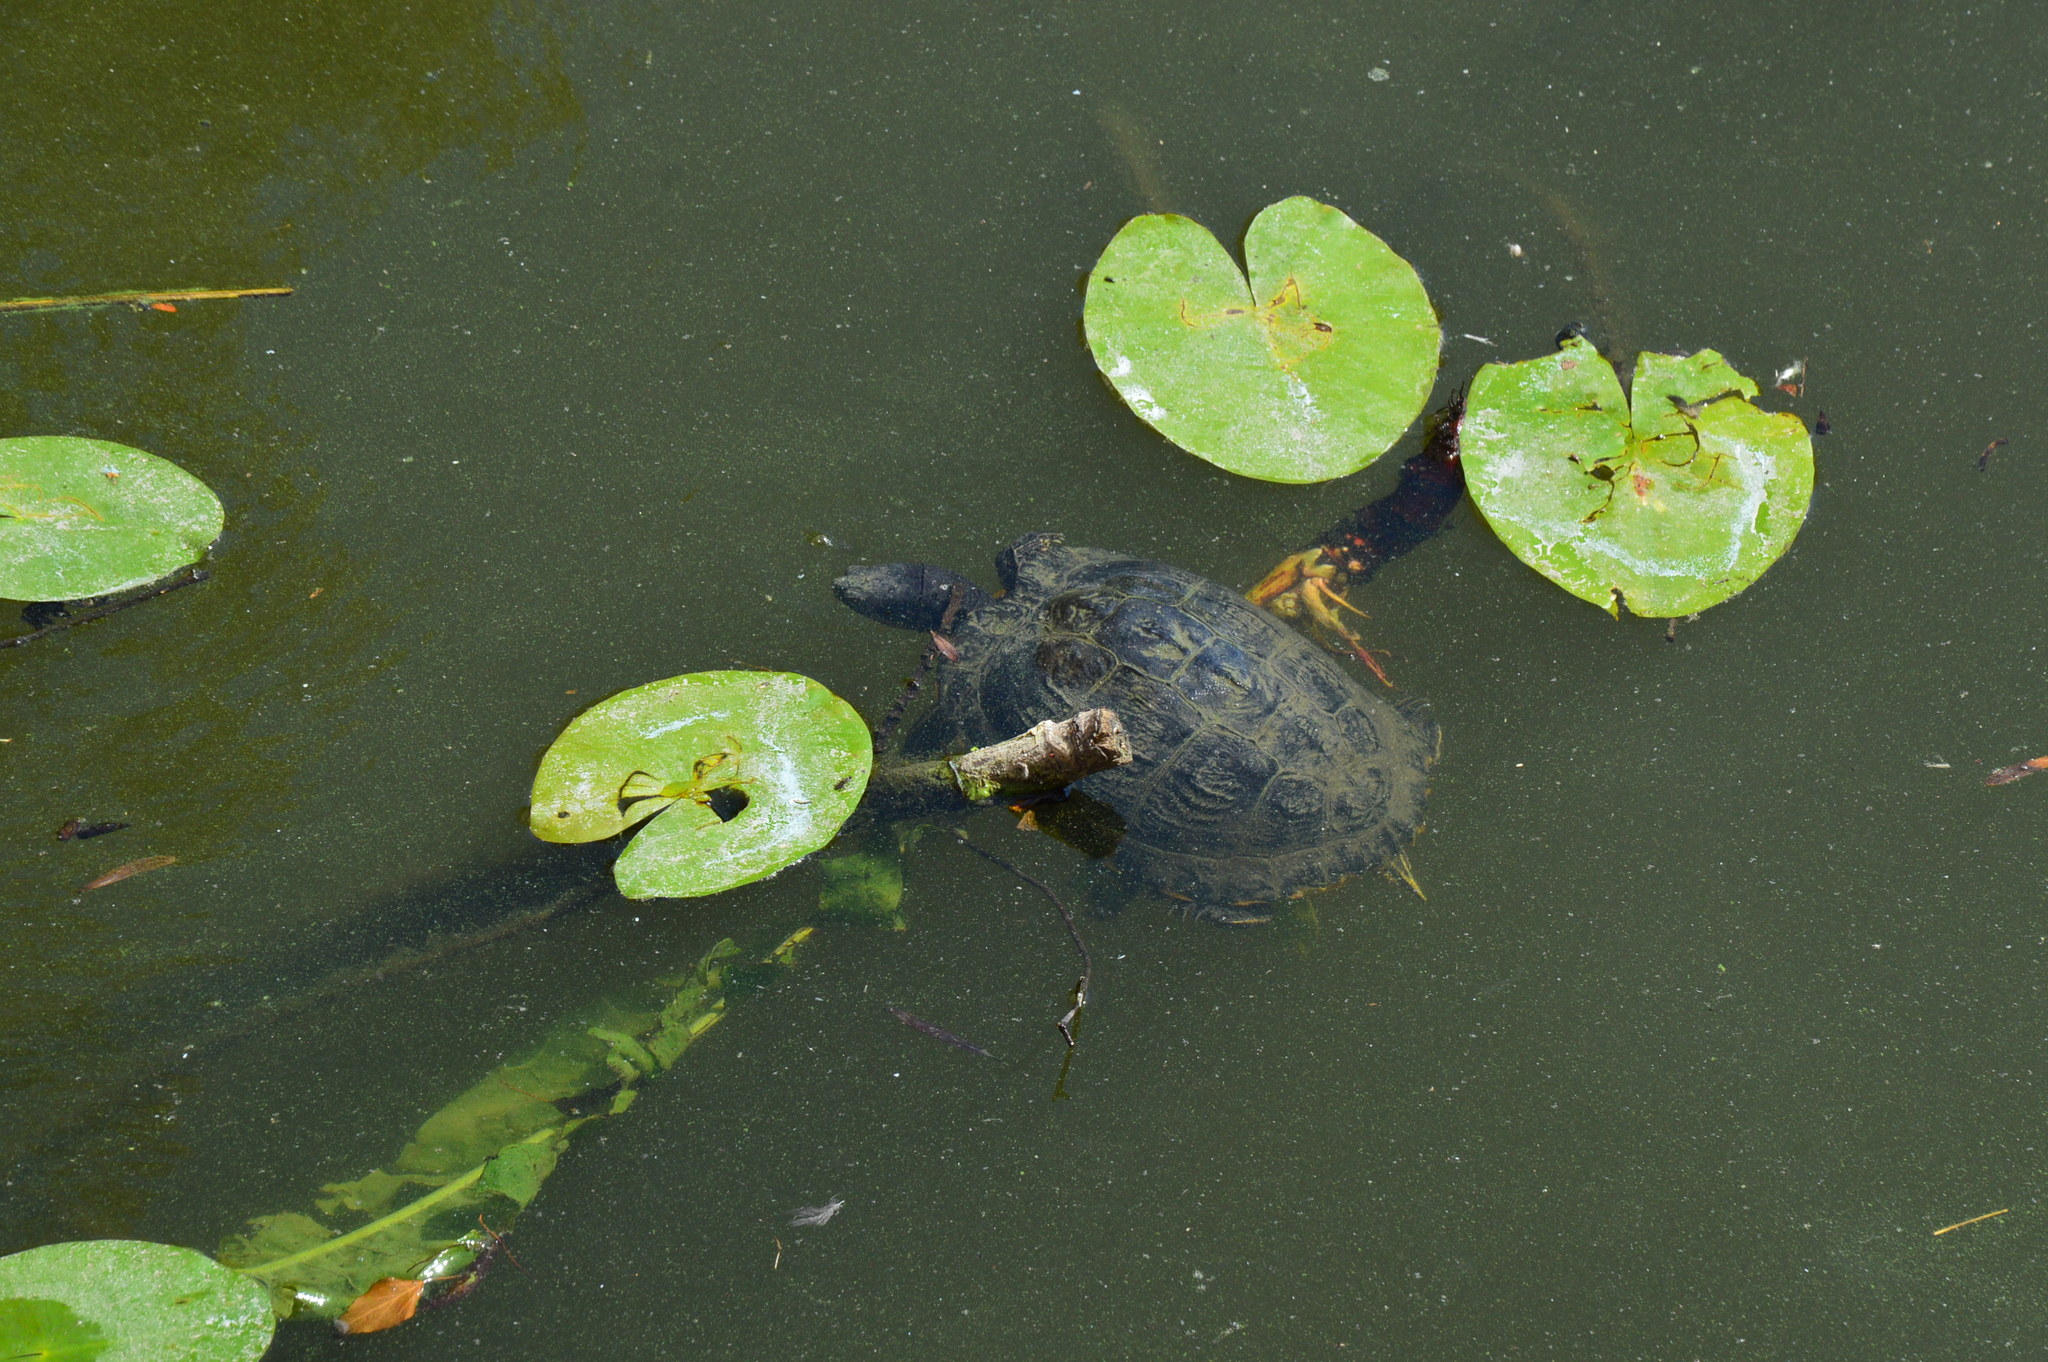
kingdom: Animalia
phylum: Chordata
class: Testudines
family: Emydidae
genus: Trachemys
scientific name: Trachemys scripta
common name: Slider
